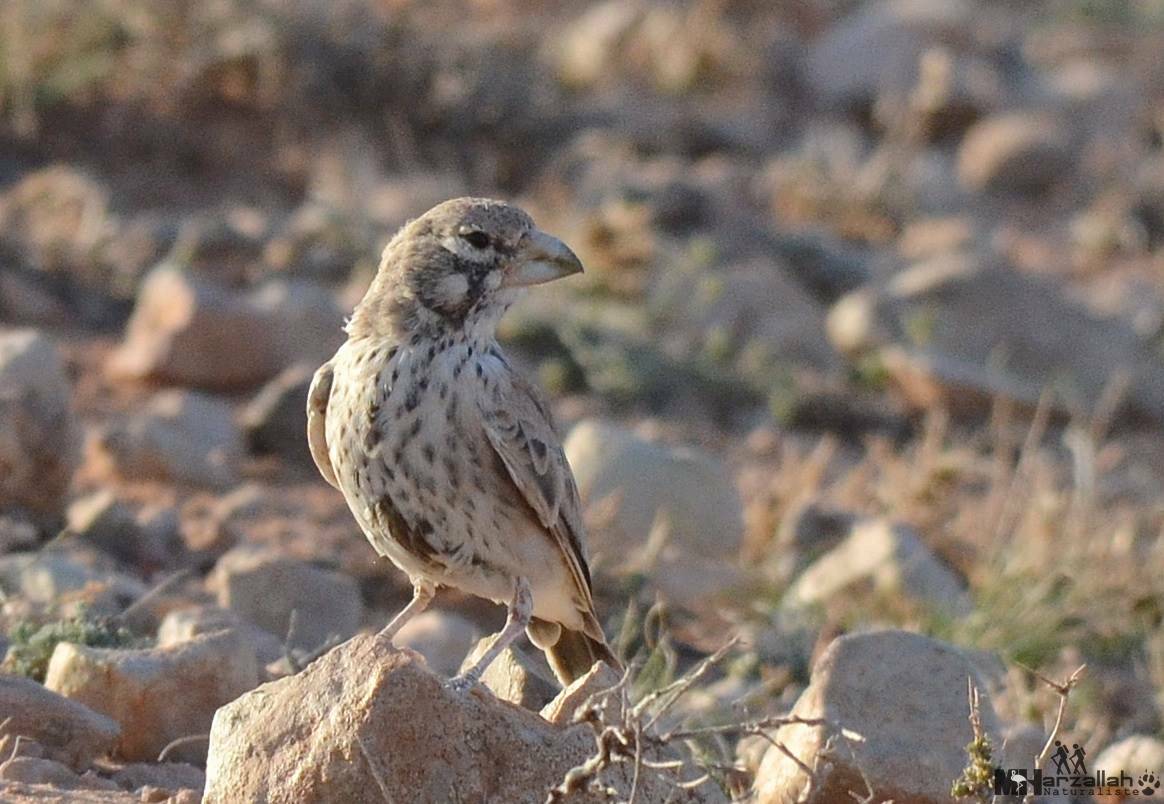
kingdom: Animalia
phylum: Chordata
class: Aves
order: Passeriformes
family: Alaudidae
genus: Ramphocoris
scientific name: Ramphocoris clotbey
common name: Thick-billed lark
